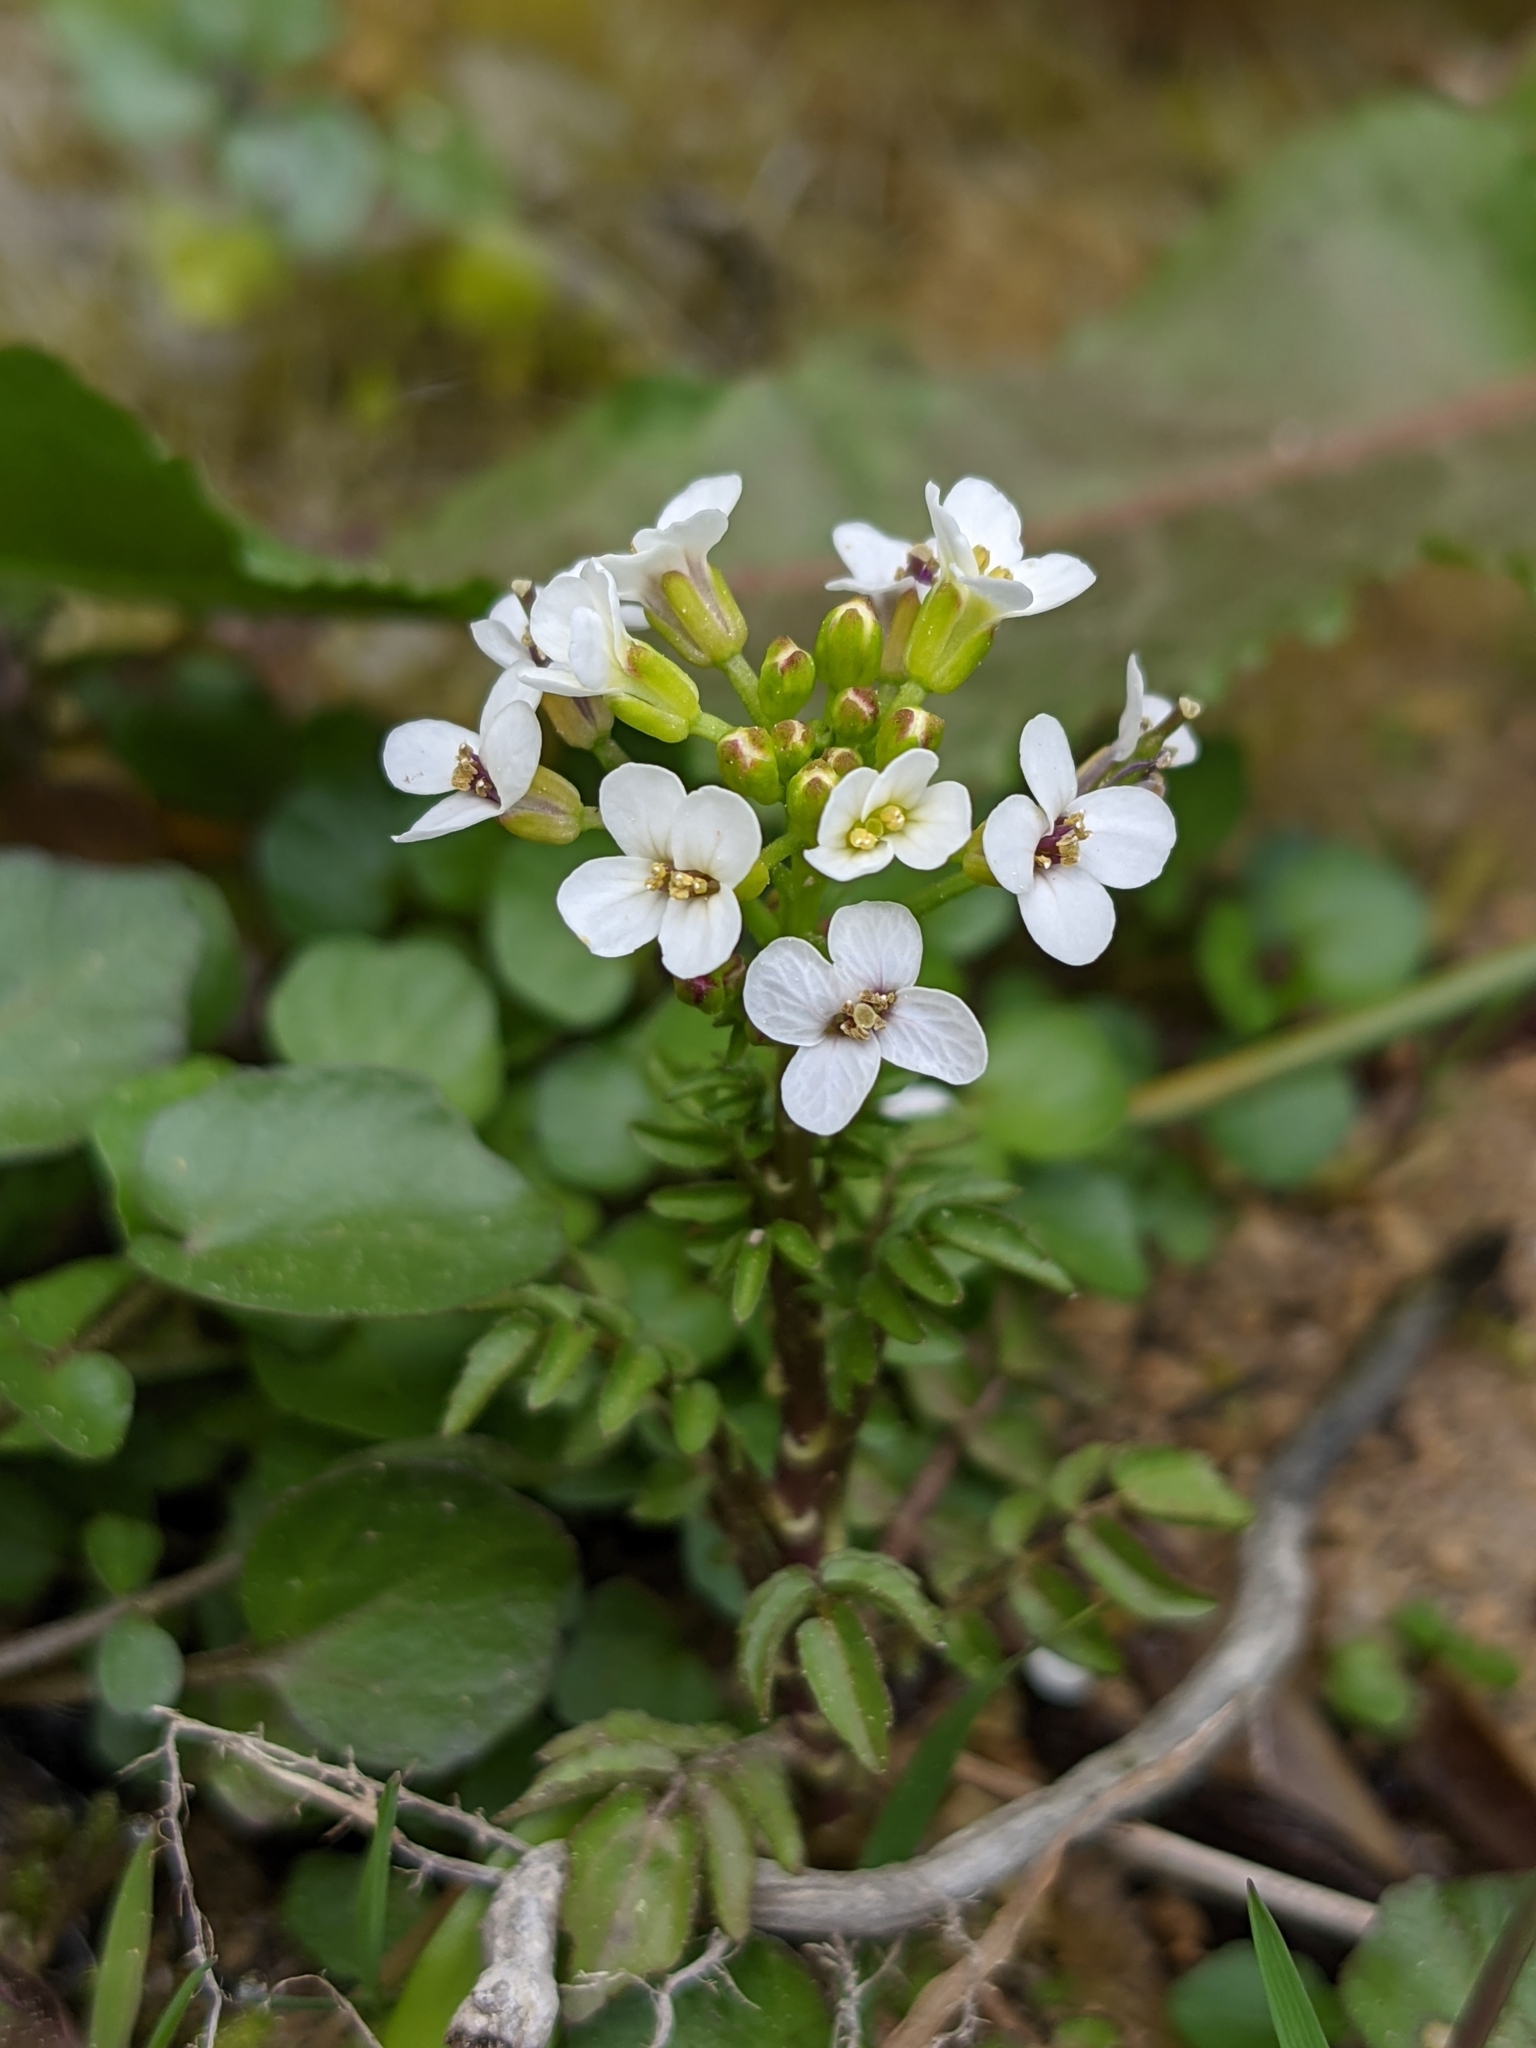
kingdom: Plantae
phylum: Tracheophyta
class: Magnoliopsida
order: Brassicales
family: Brassicaceae
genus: Nasturtium
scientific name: Nasturtium officinale
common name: Watercress
